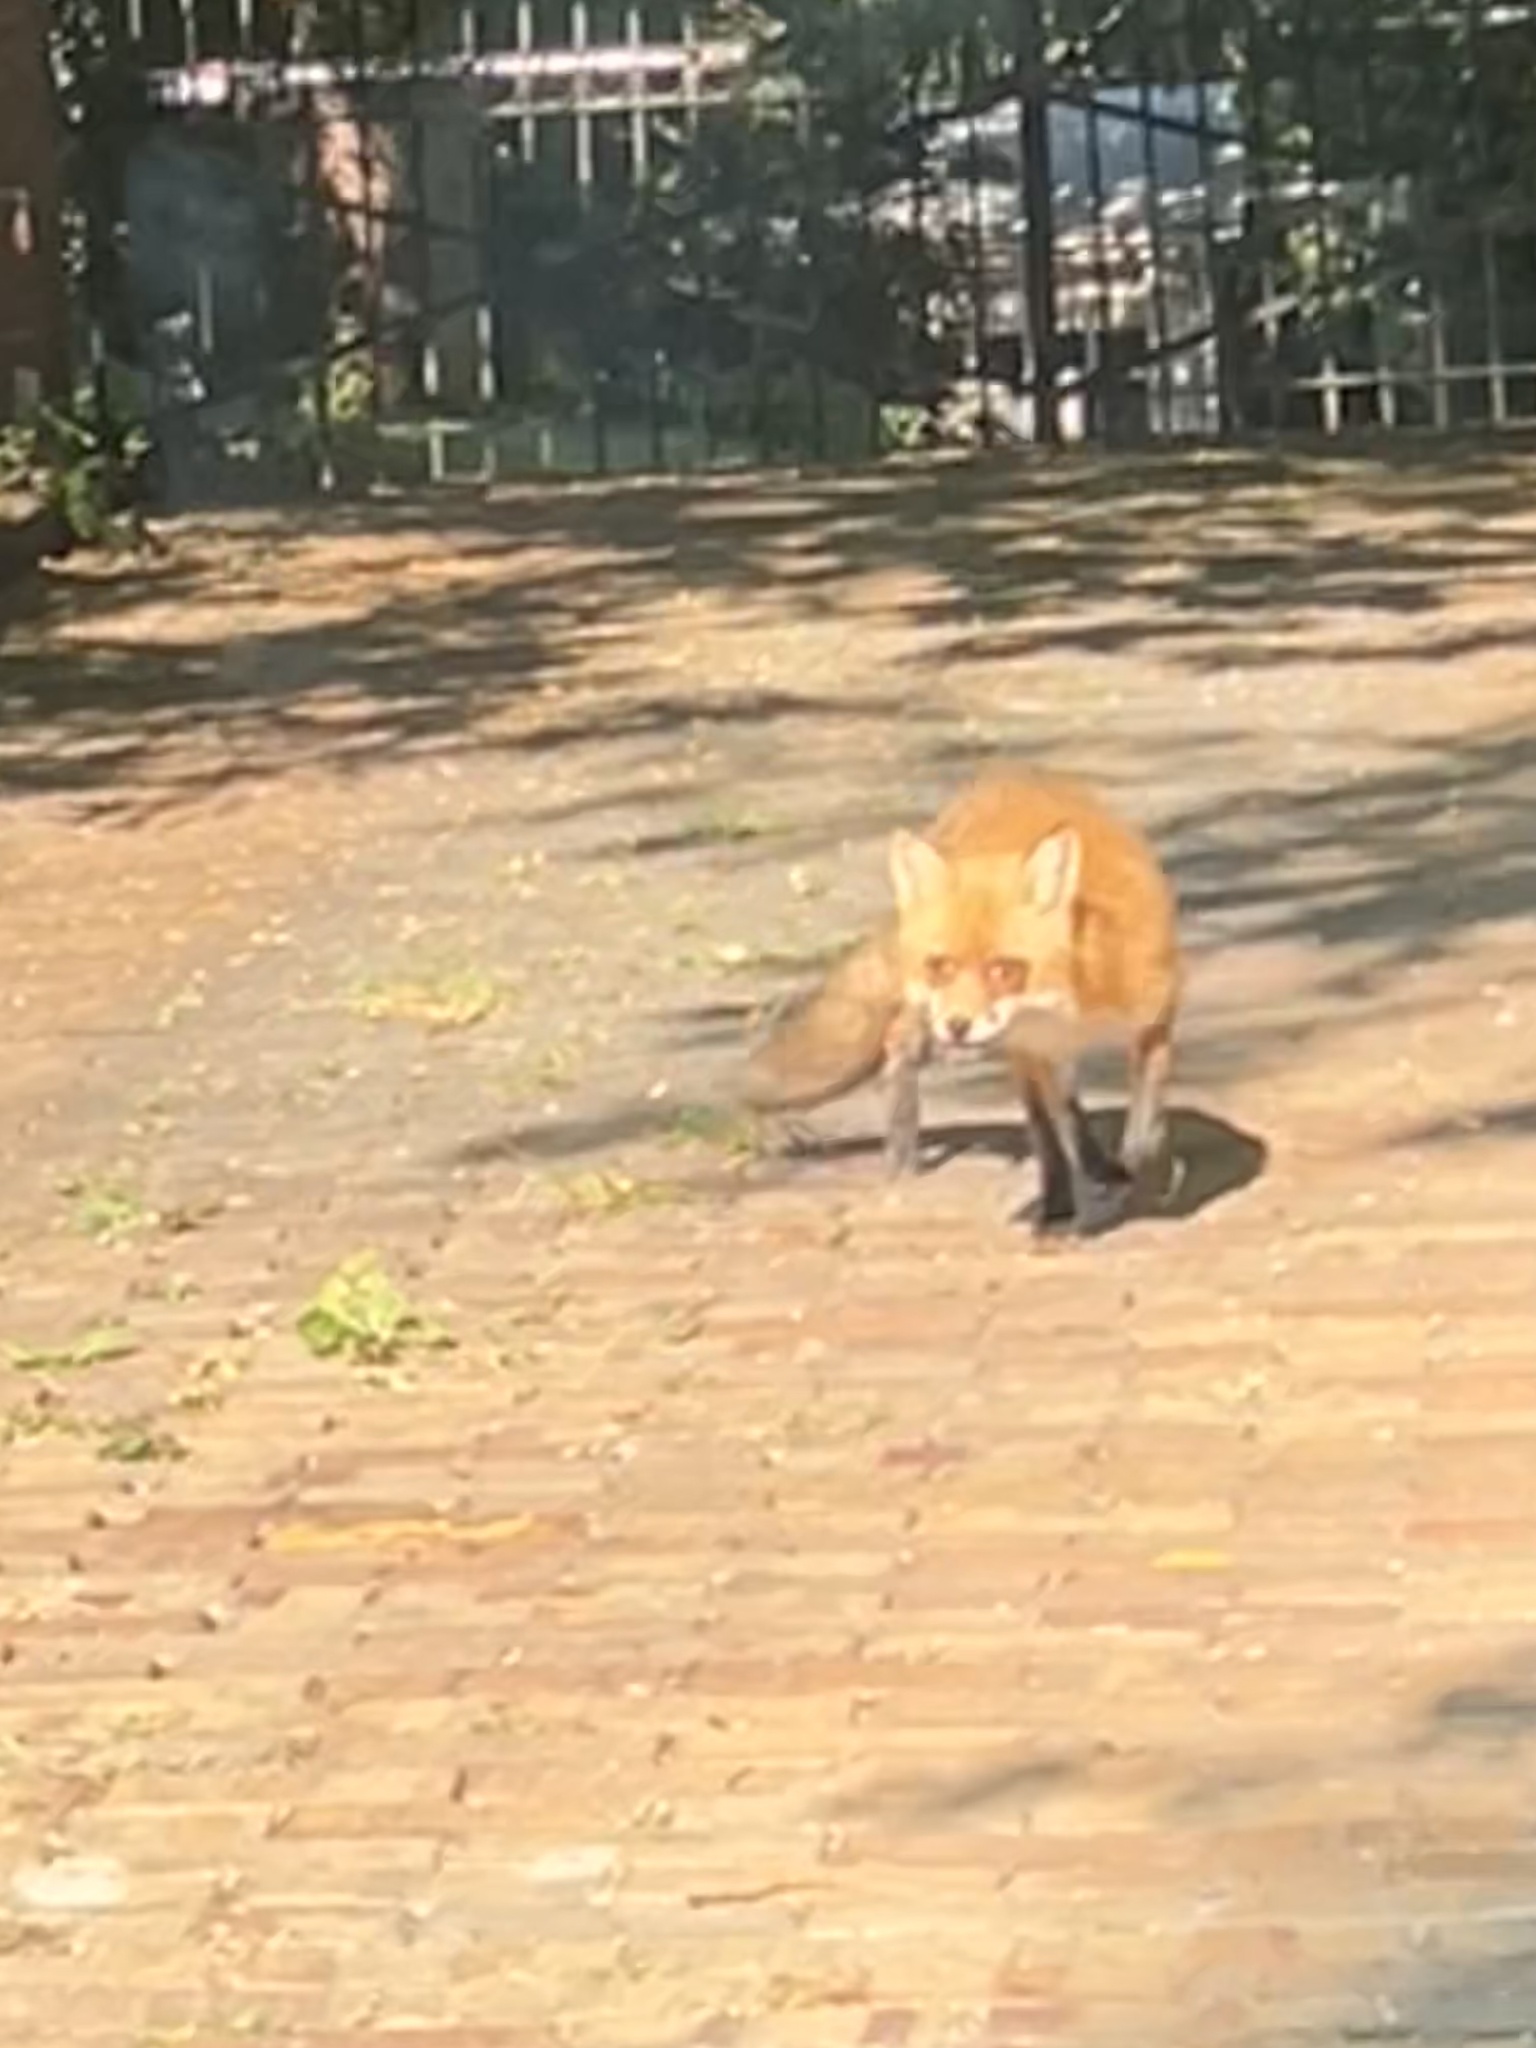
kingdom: Animalia
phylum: Chordata
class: Mammalia
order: Carnivora
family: Canidae
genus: Vulpes
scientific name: Vulpes vulpes
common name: Red fox
